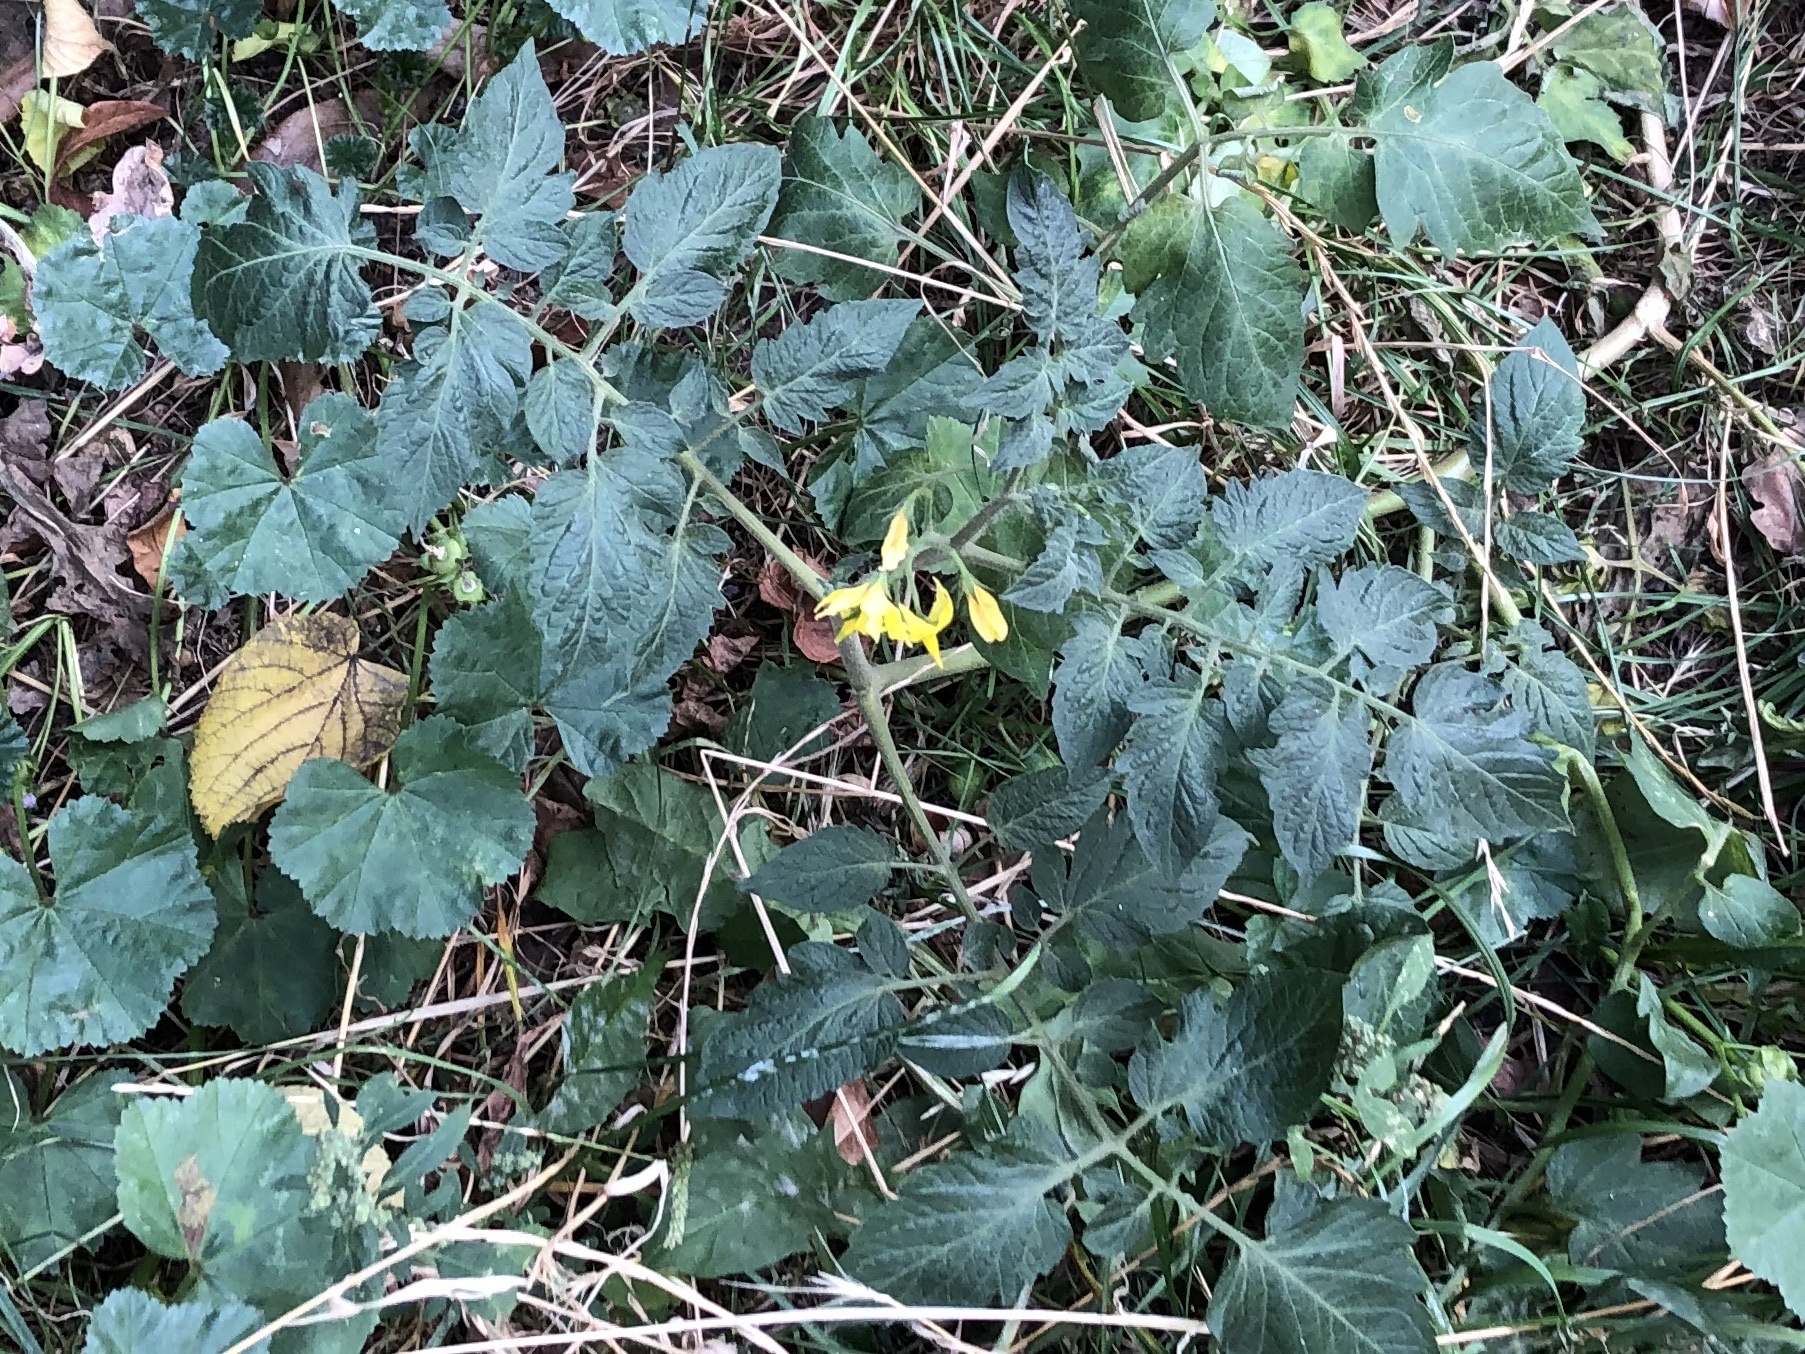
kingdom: Plantae
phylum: Tracheophyta
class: Magnoliopsida
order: Solanales
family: Solanaceae
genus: Solanum
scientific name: Solanum lycopersicum
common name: Garden tomato
